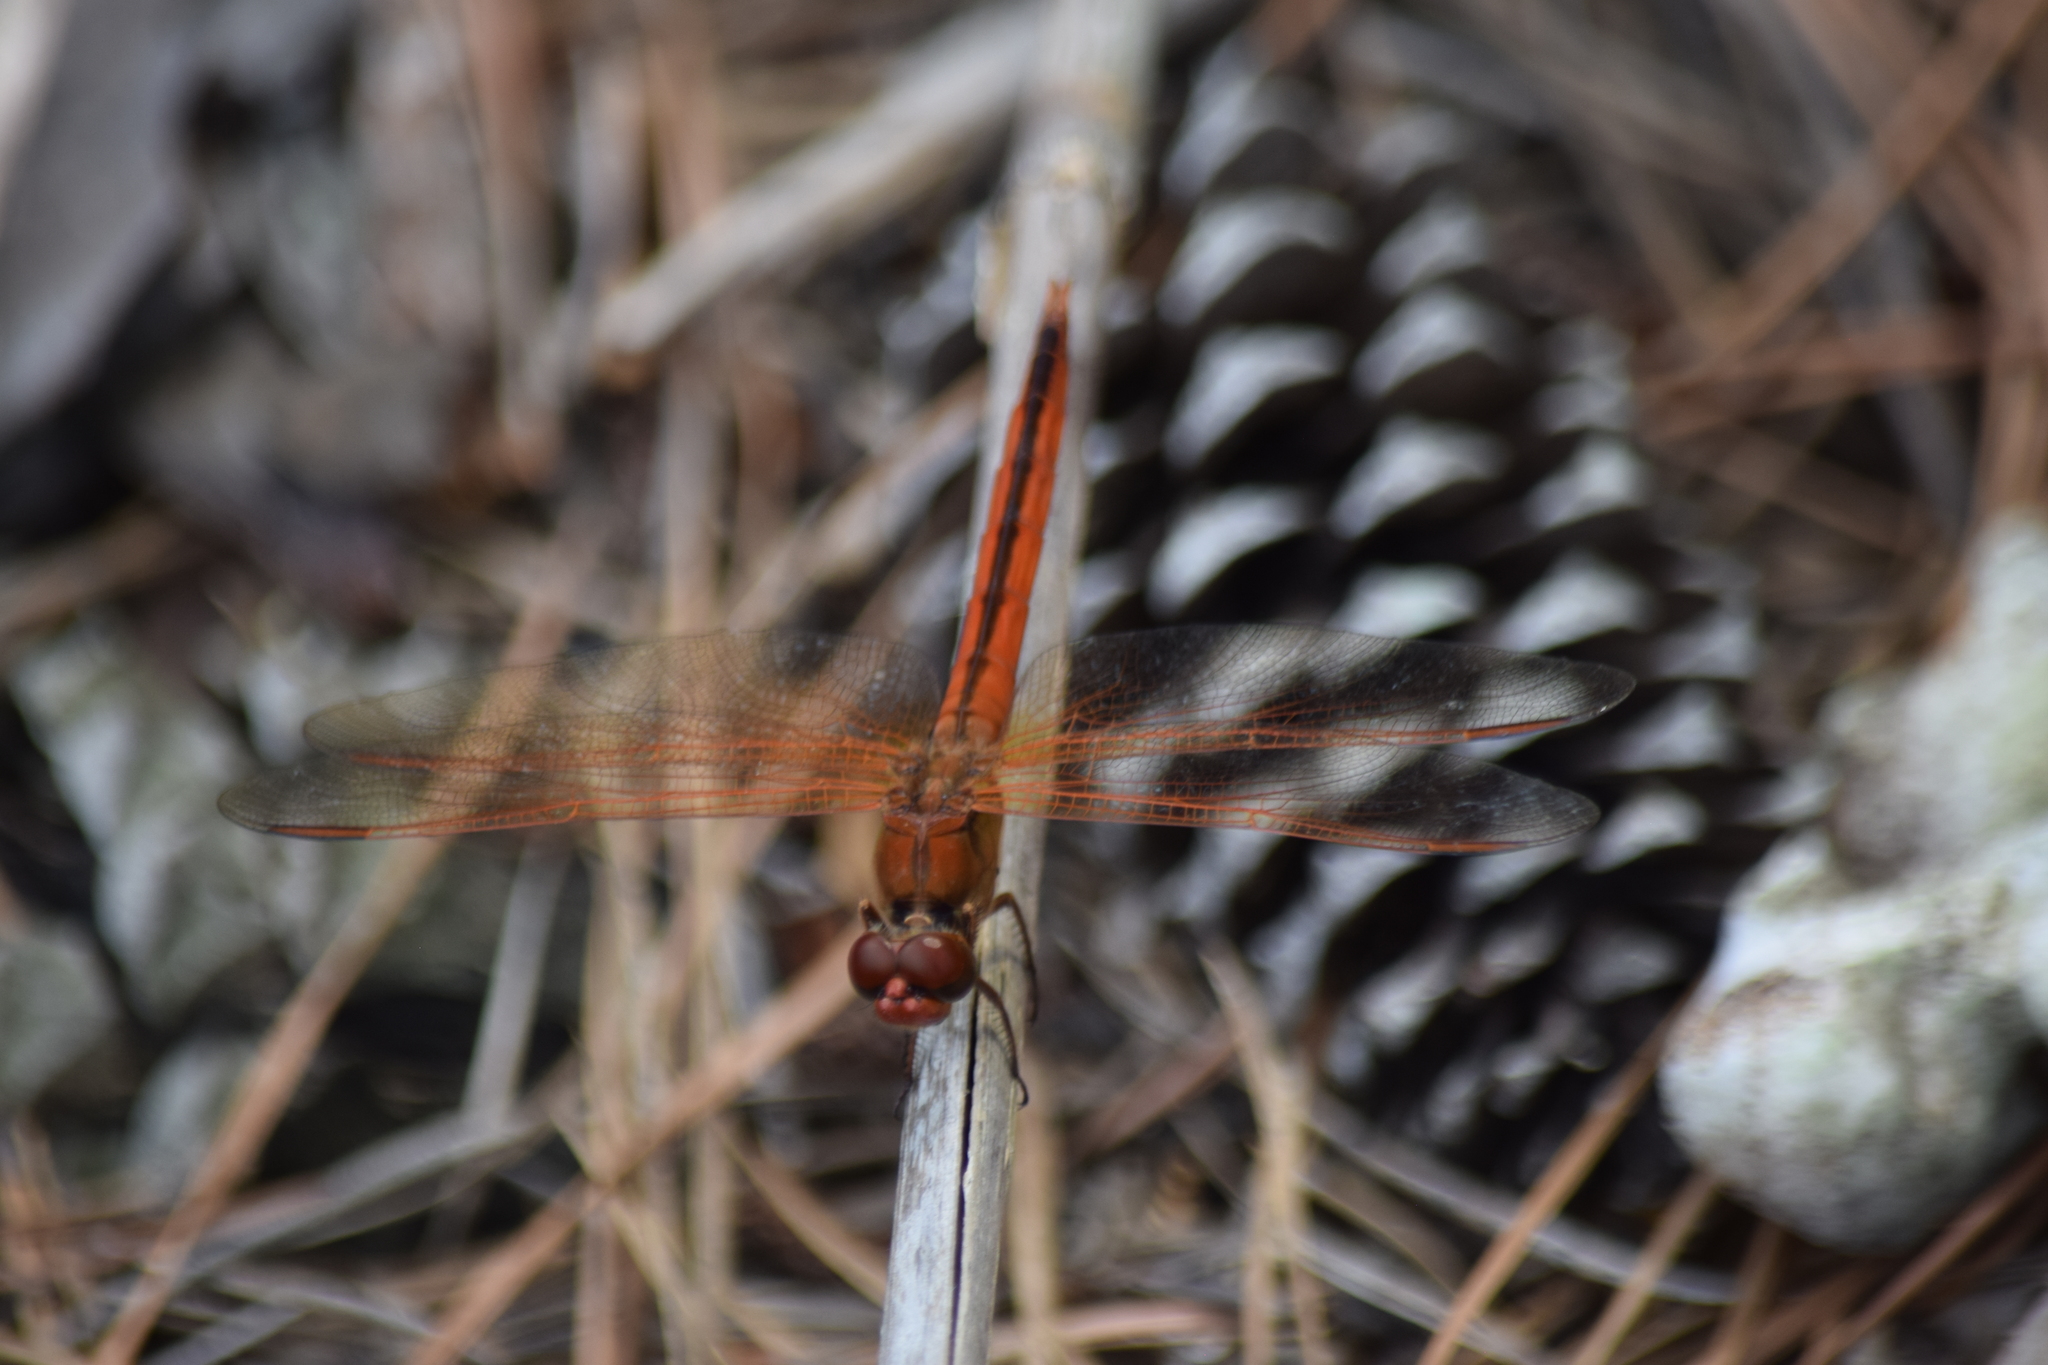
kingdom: Animalia
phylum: Arthropoda
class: Insecta
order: Odonata
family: Libellulidae
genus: Libellula
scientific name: Libellula needhami
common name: Needham's skimmer
